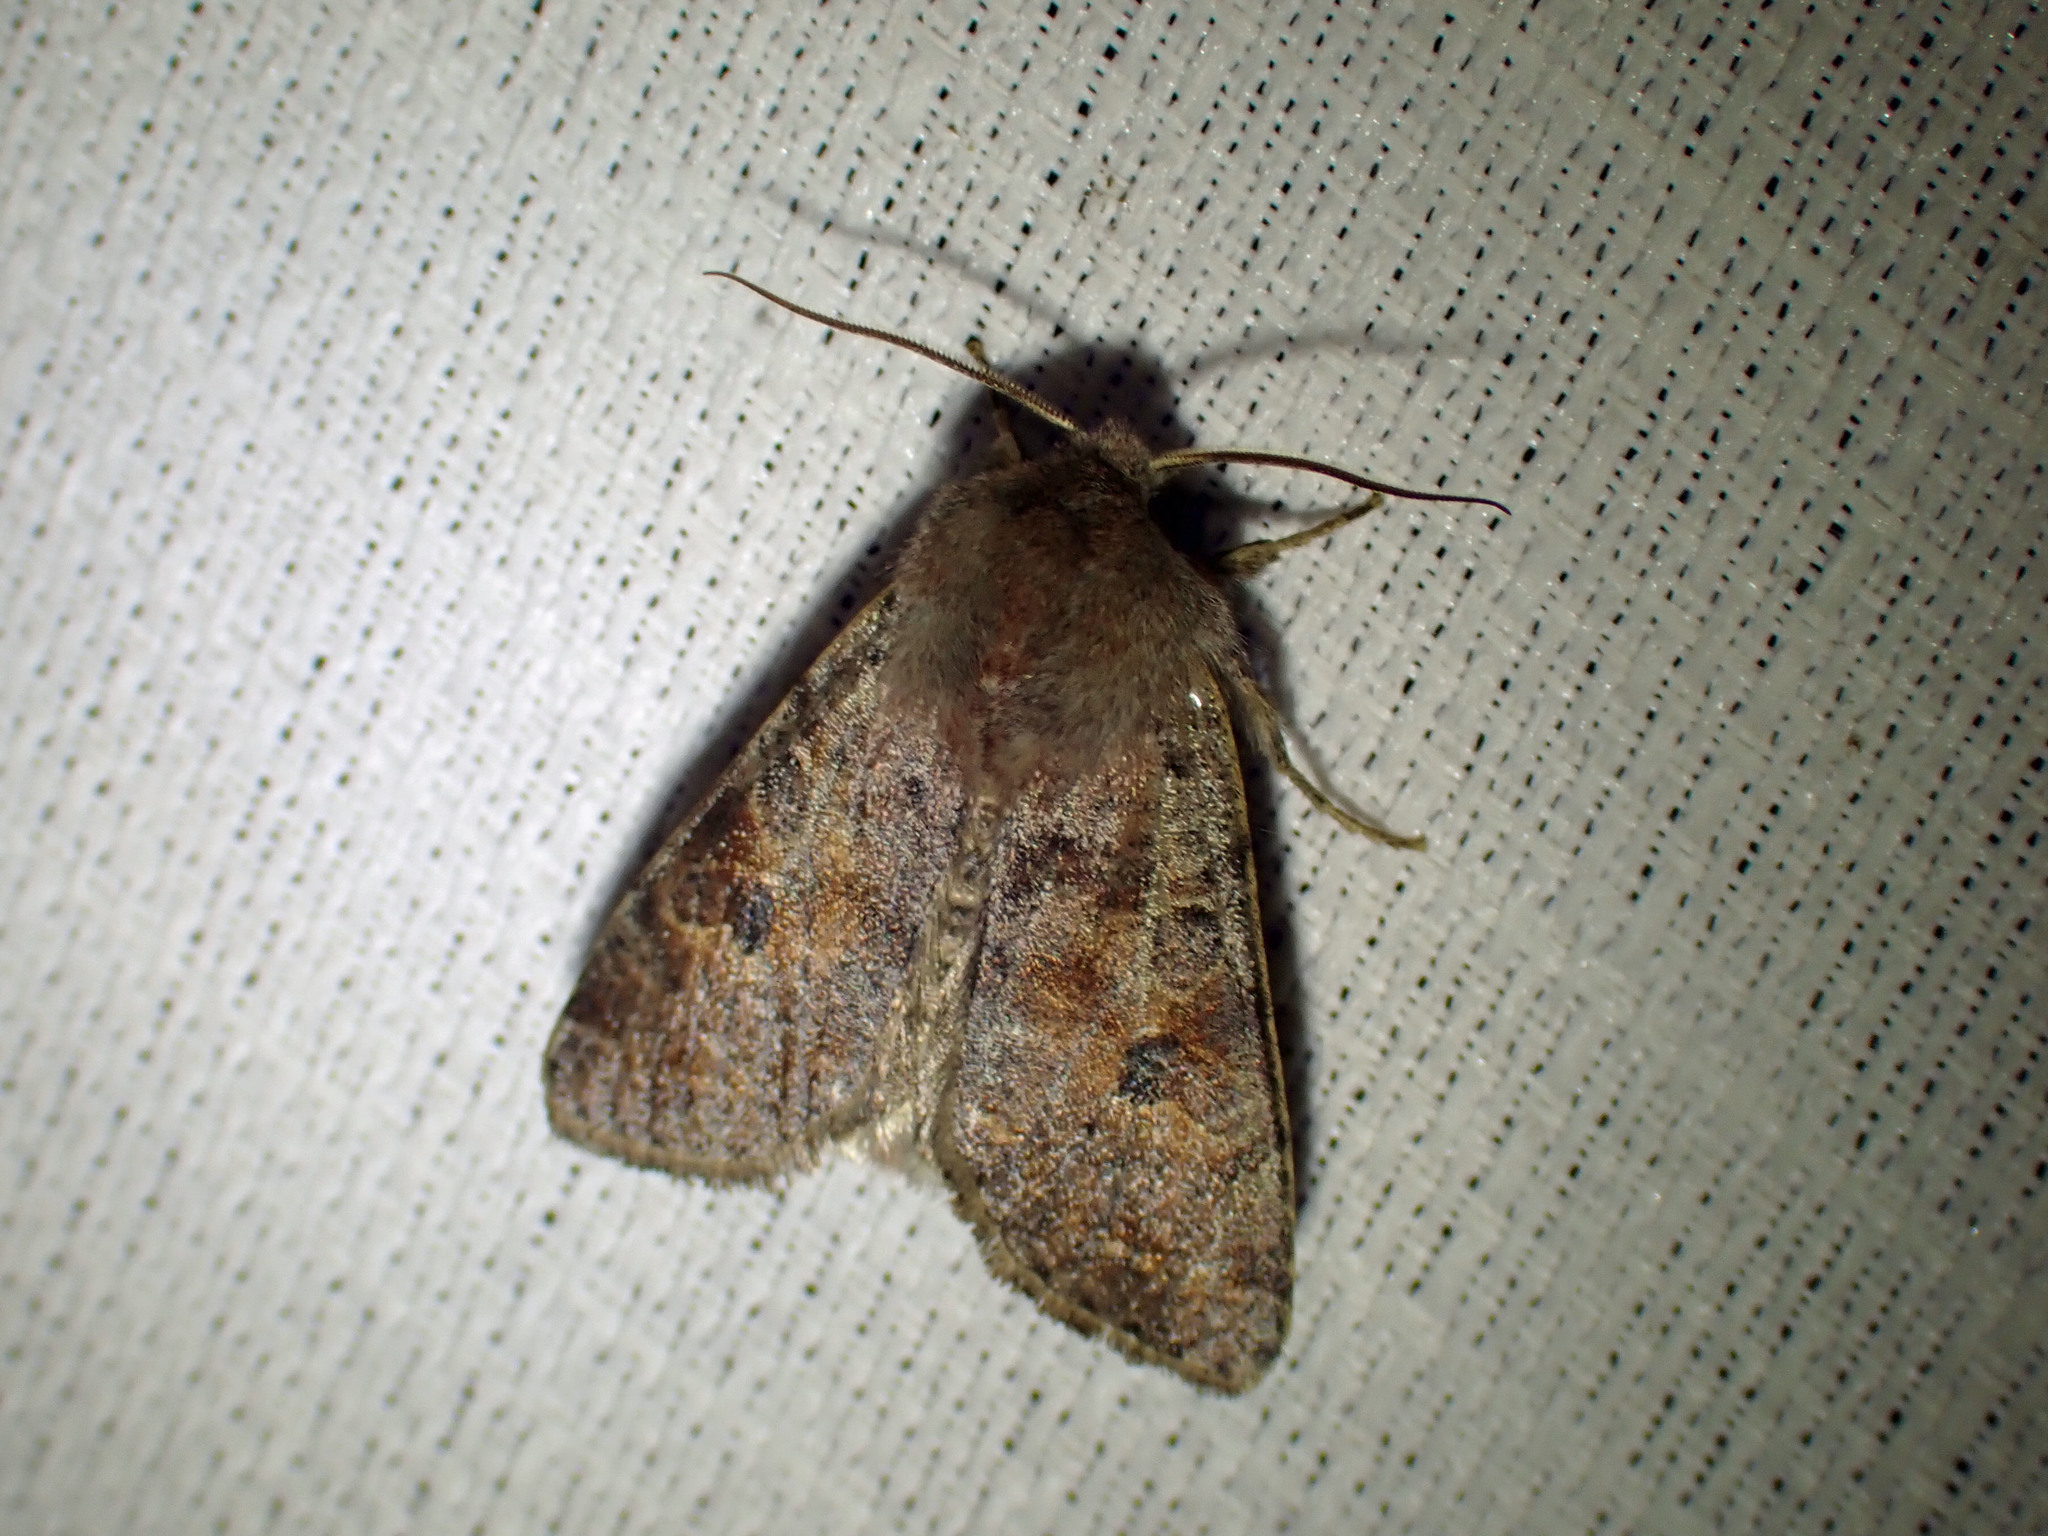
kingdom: Animalia
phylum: Arthropoda
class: Insecta
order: Lepidoptera
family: Noctuidae
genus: Orthosia
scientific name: Orthosia hibisci
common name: Green fruitworm
